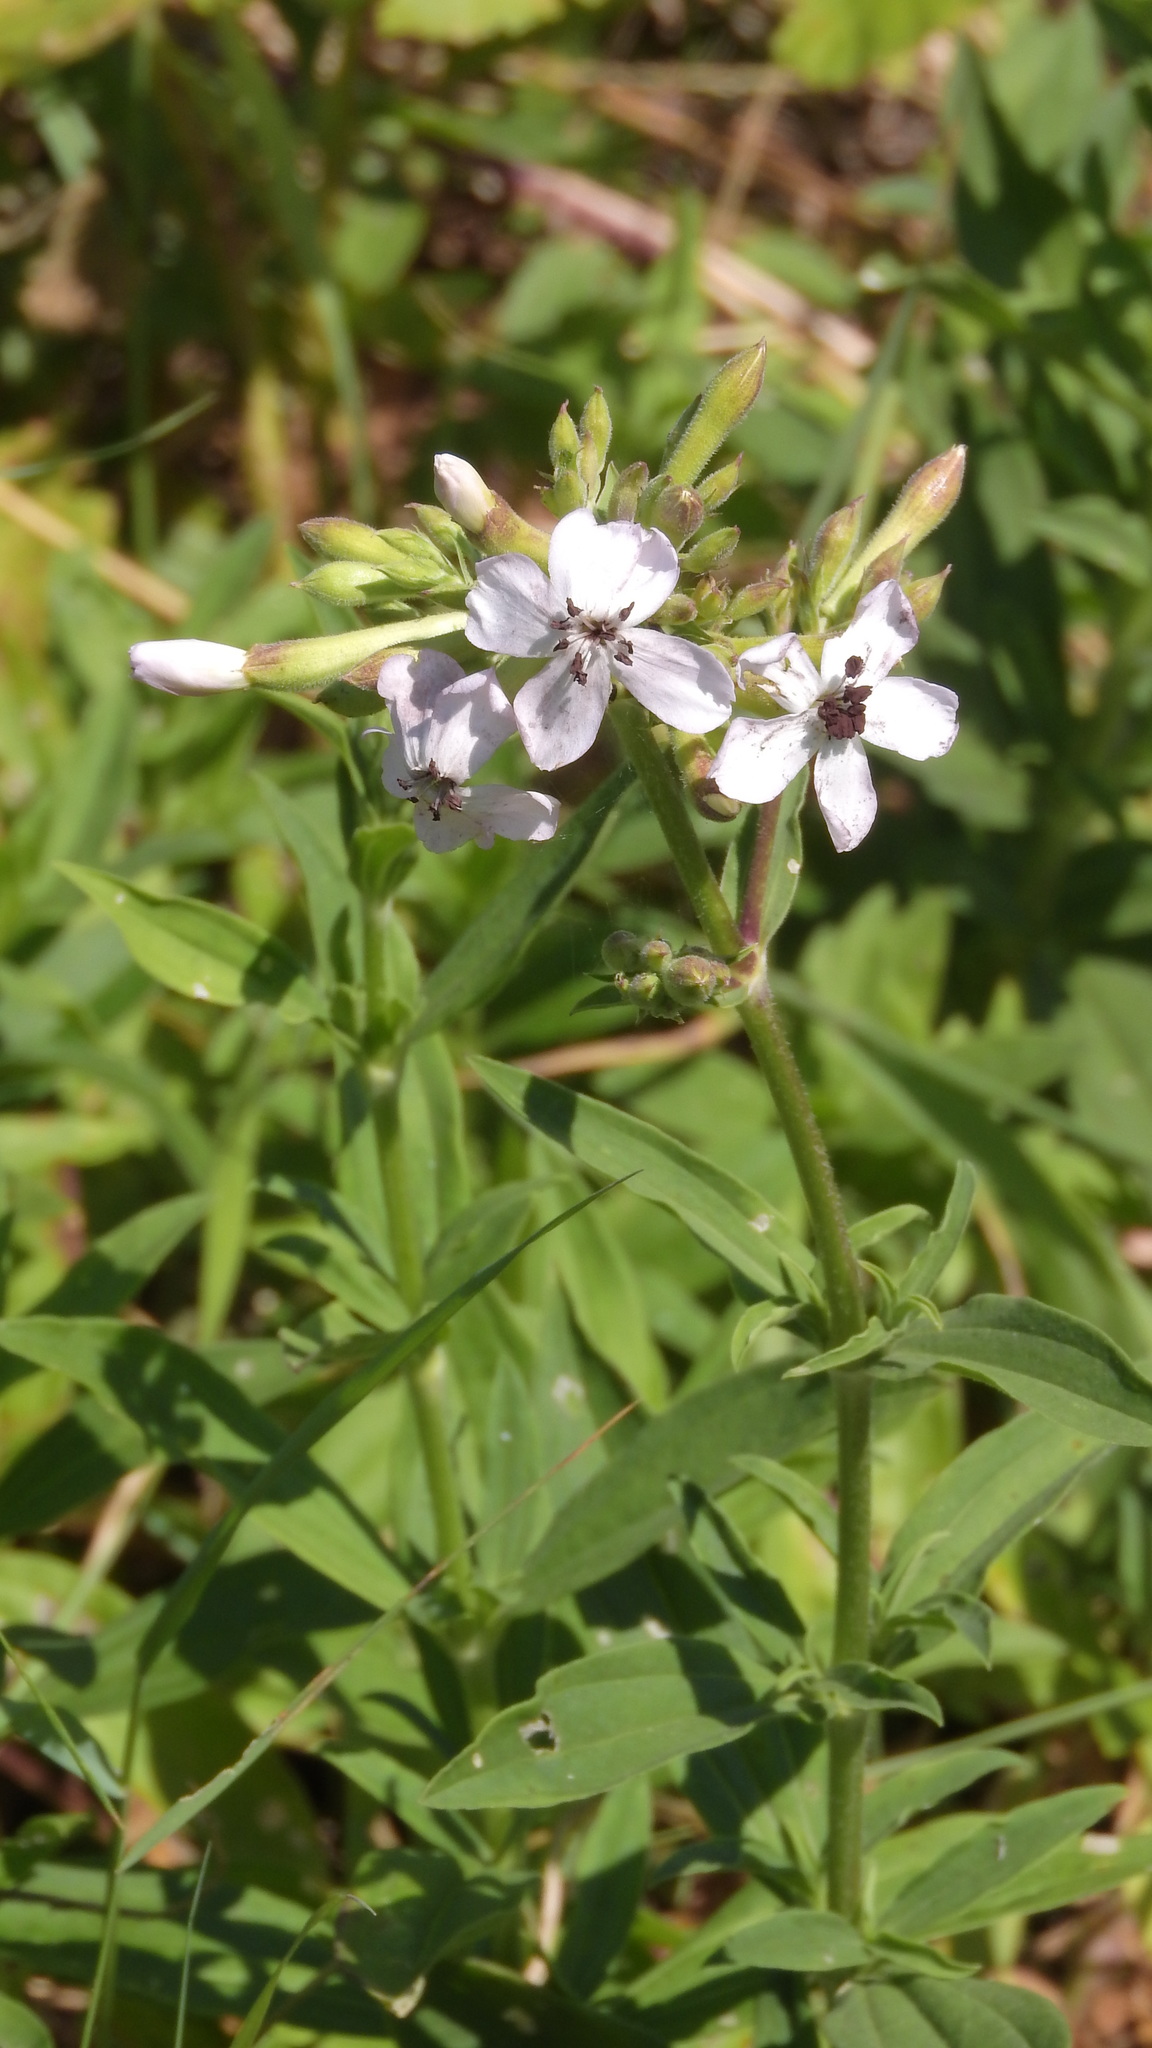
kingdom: Plantae
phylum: Tracheophyta
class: Magnoliopsida
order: Caryophyllales
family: Caryophyllaceae
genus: Saponaria
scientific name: Saponaria officinalis
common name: Soapwort
